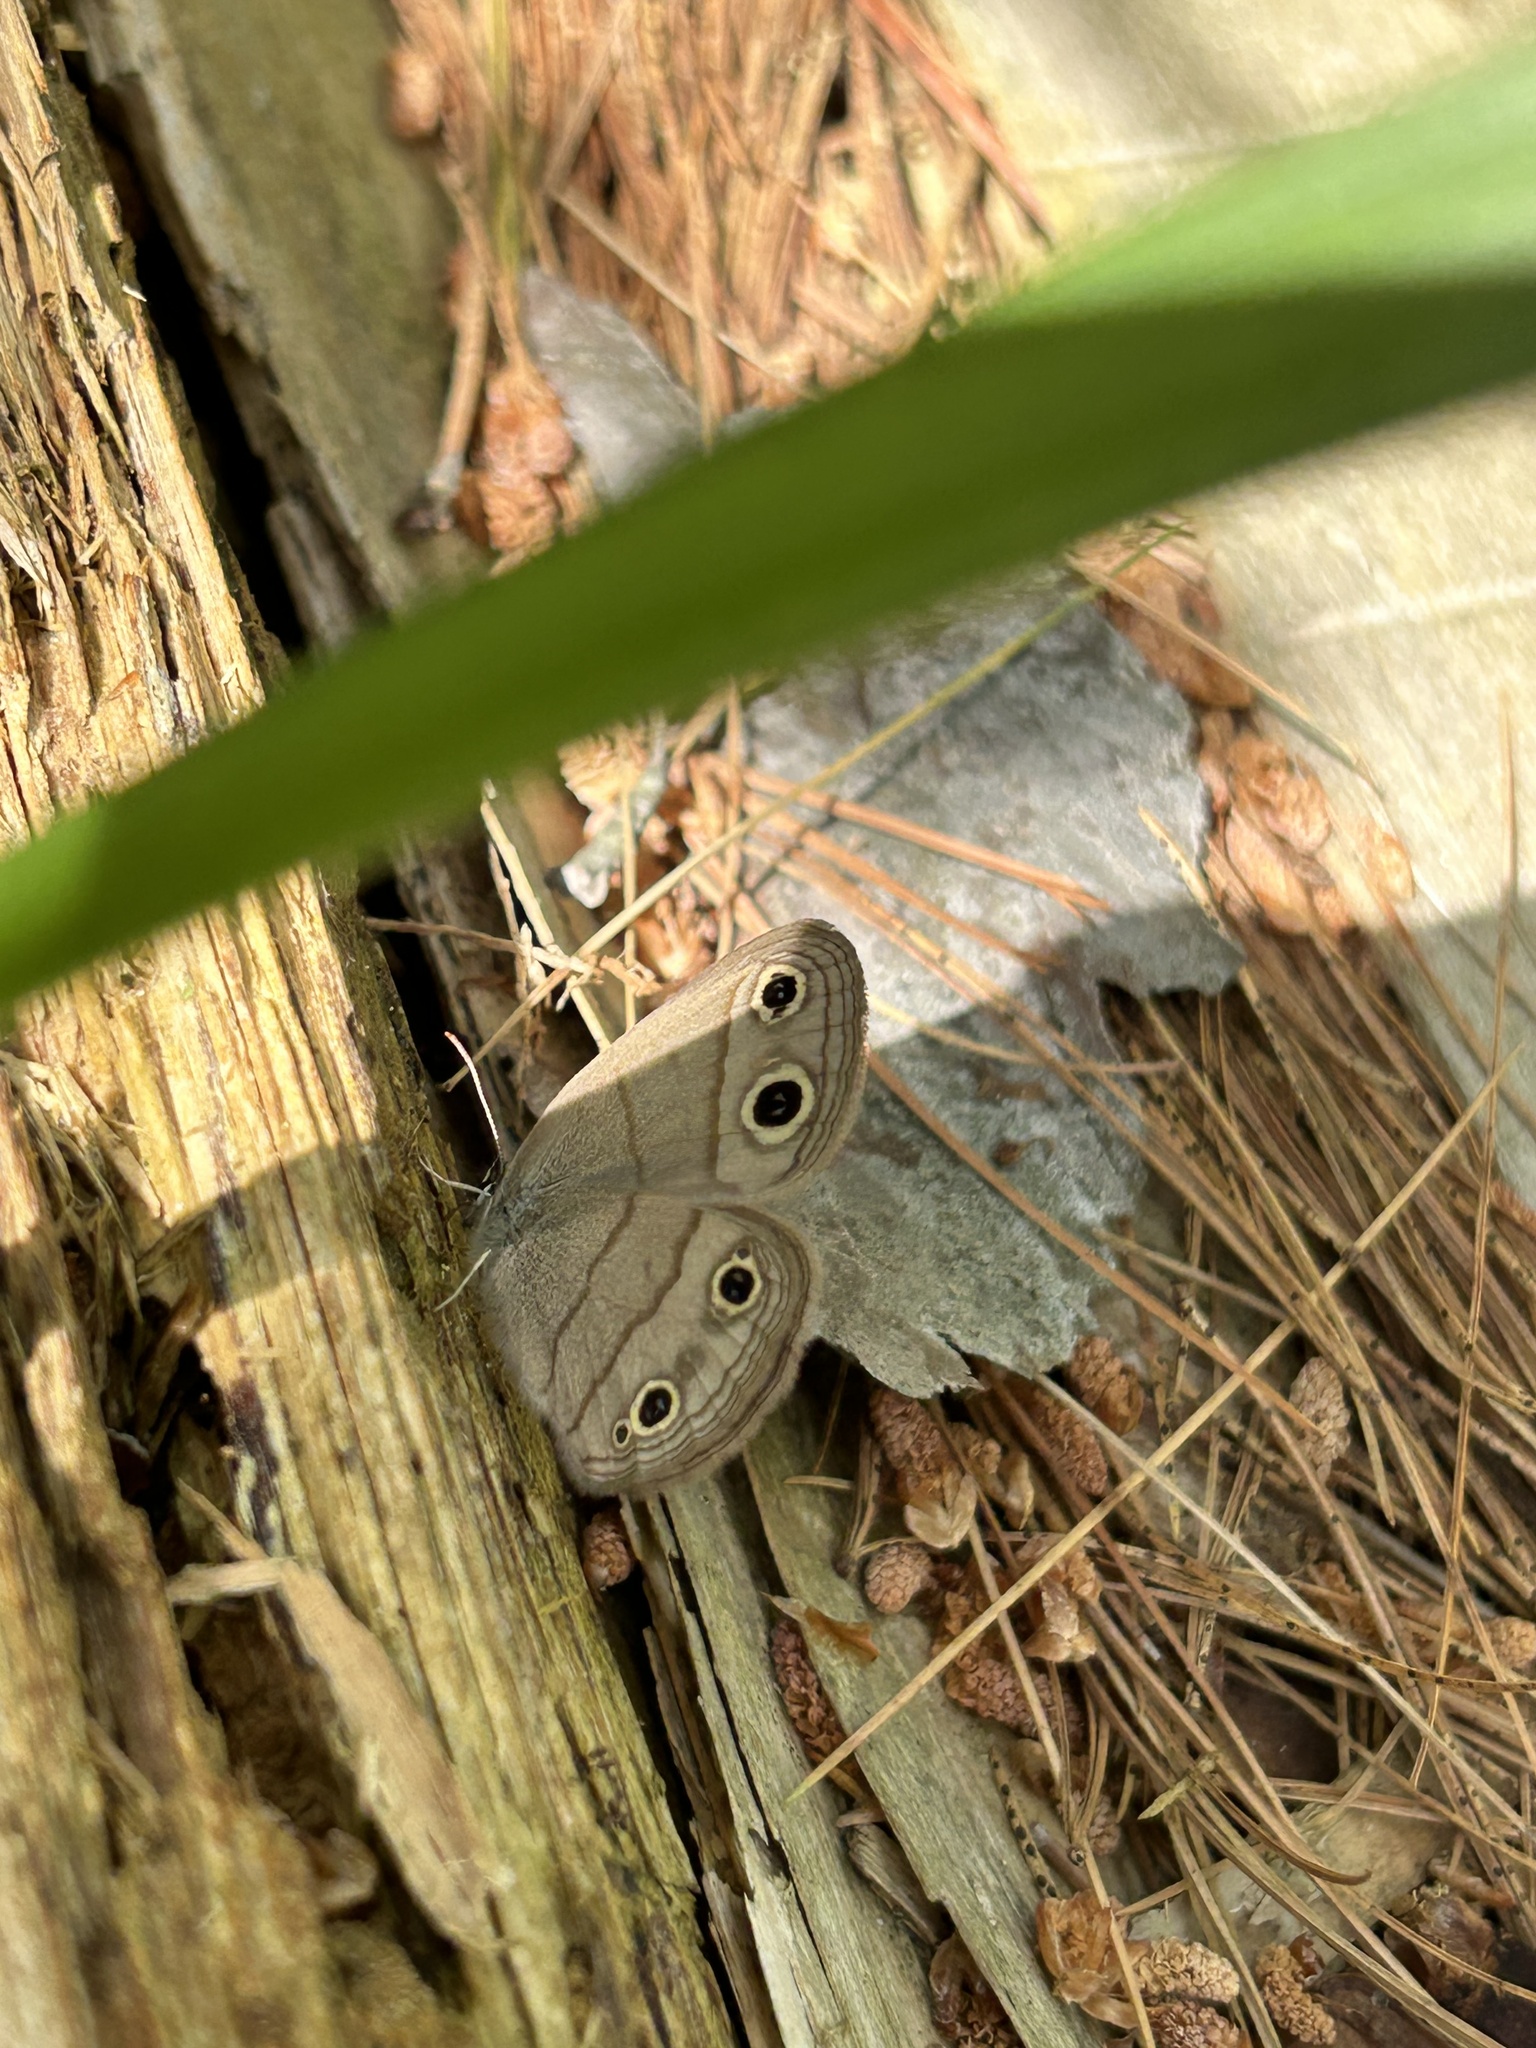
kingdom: Animalia
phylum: Arthropoda
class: Insecta
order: Lepidoptera
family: Nymphalidae
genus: Euptychia
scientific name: Euptychia cymela
